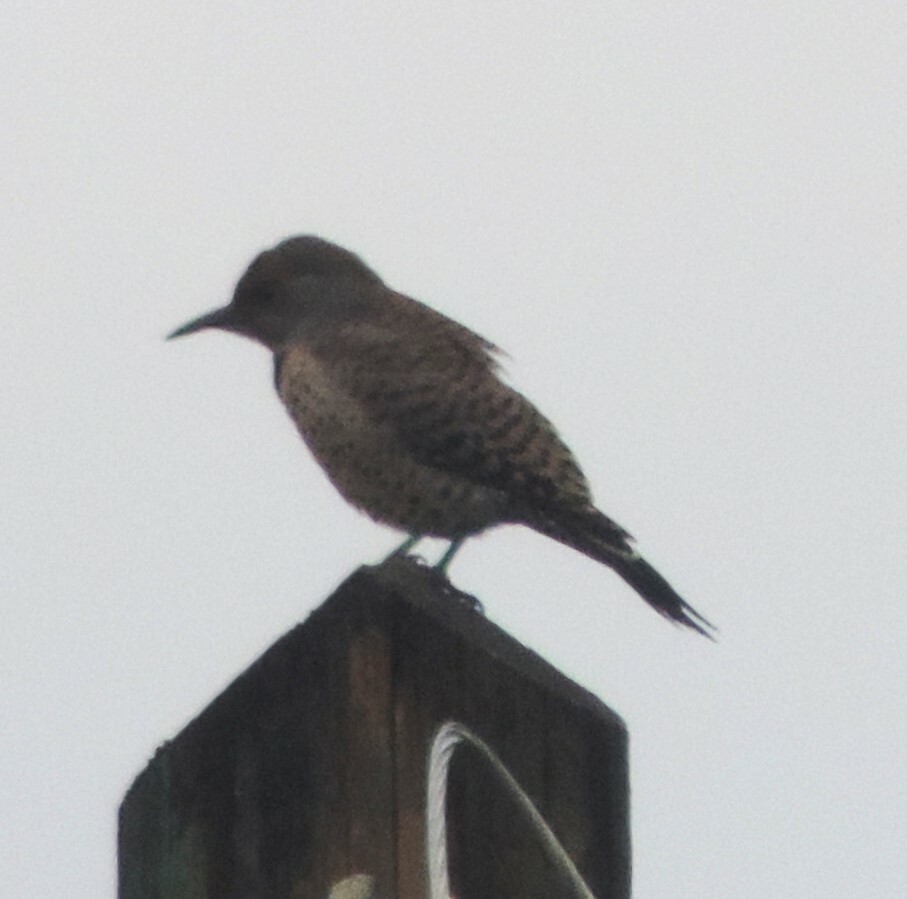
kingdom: Animalia
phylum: Chordata
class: Aves
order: Piciformes
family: Picidae
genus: Colaptes
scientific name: Colaptes auratus
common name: Northern flicker
